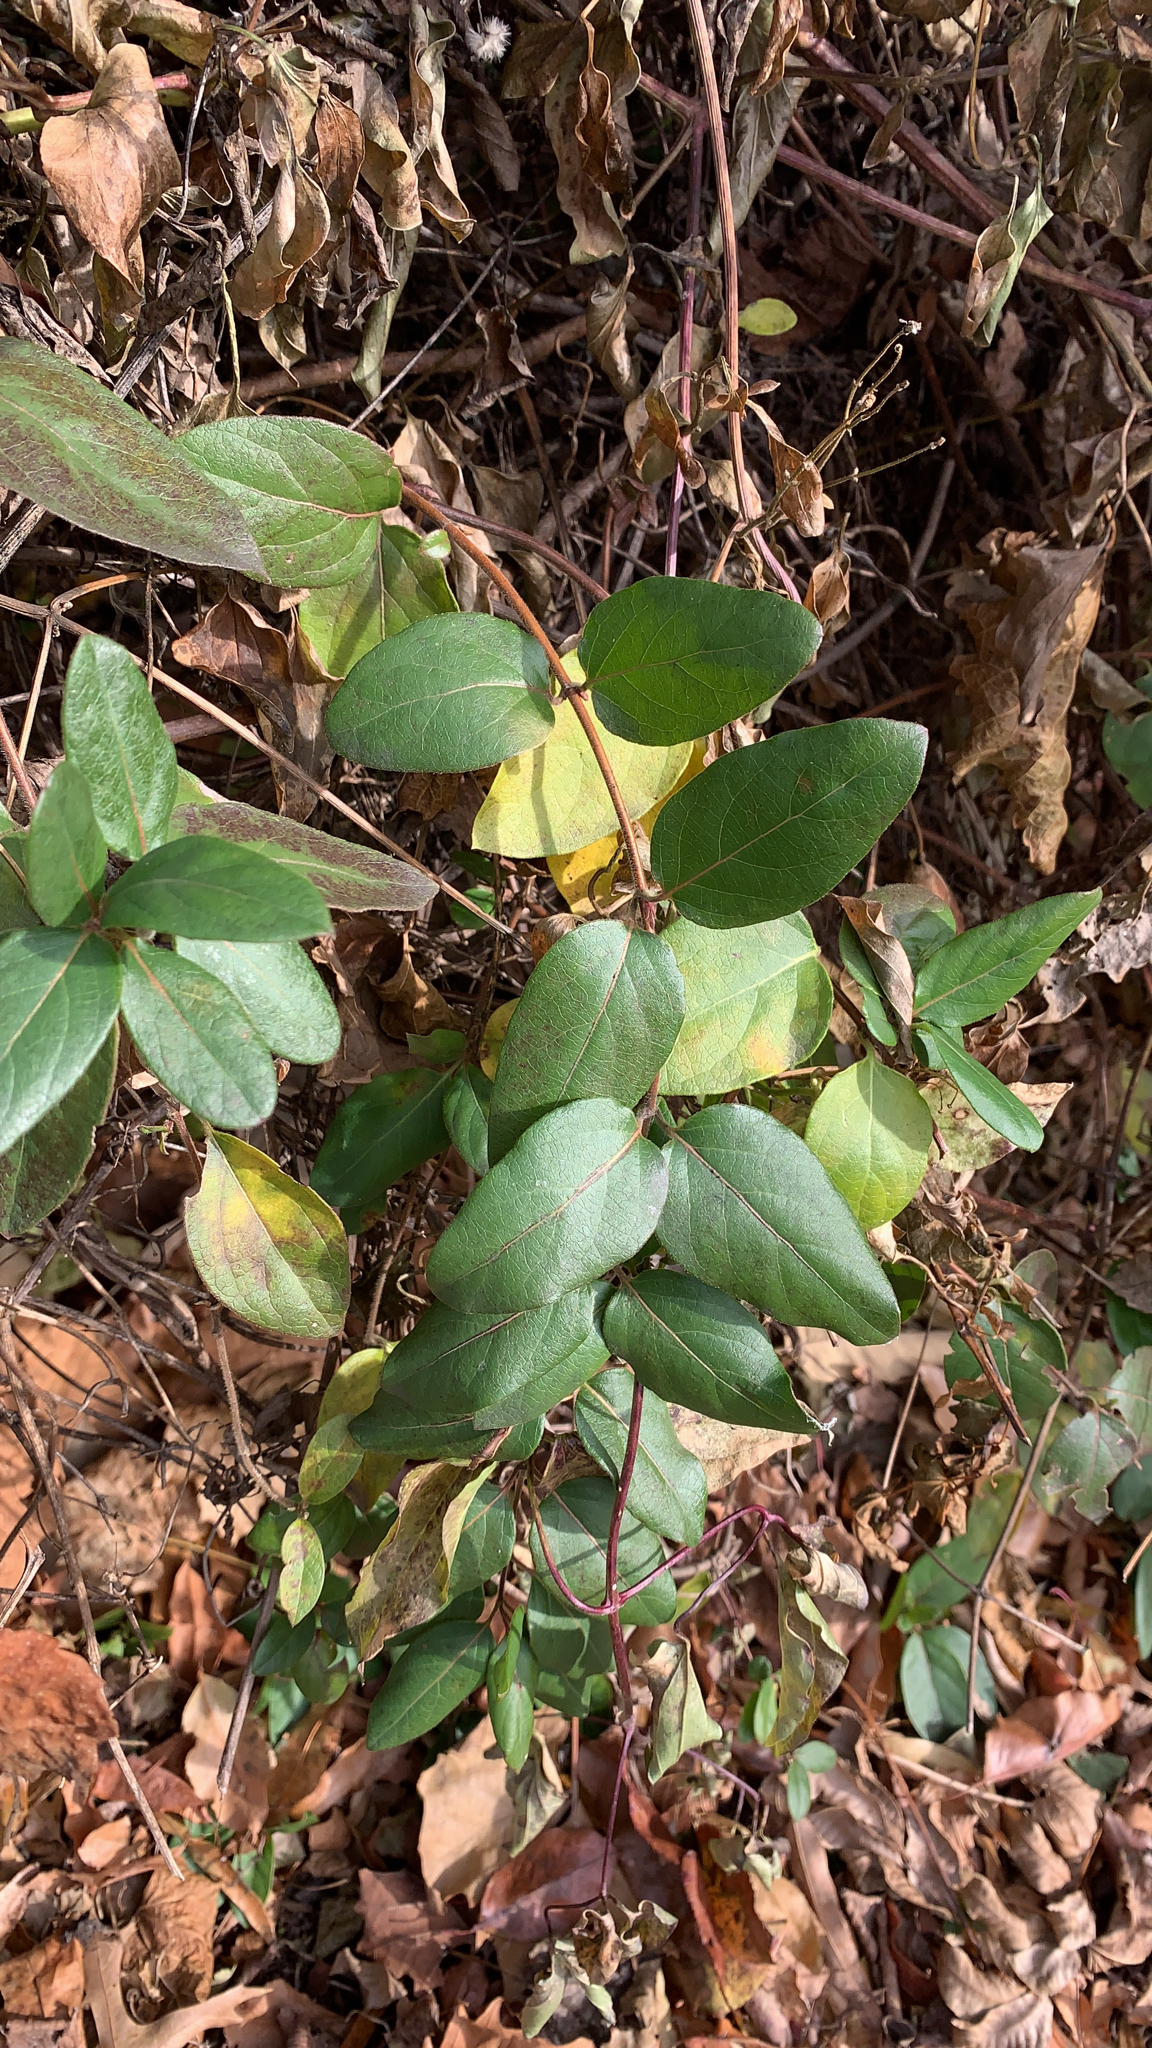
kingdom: Plantae
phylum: Tracheophyta
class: Magnoliopsida
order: Dipsacales
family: Caprifoliaceae
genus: Lonicera
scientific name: Lonicera japonica
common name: Japanese honeysuckle
